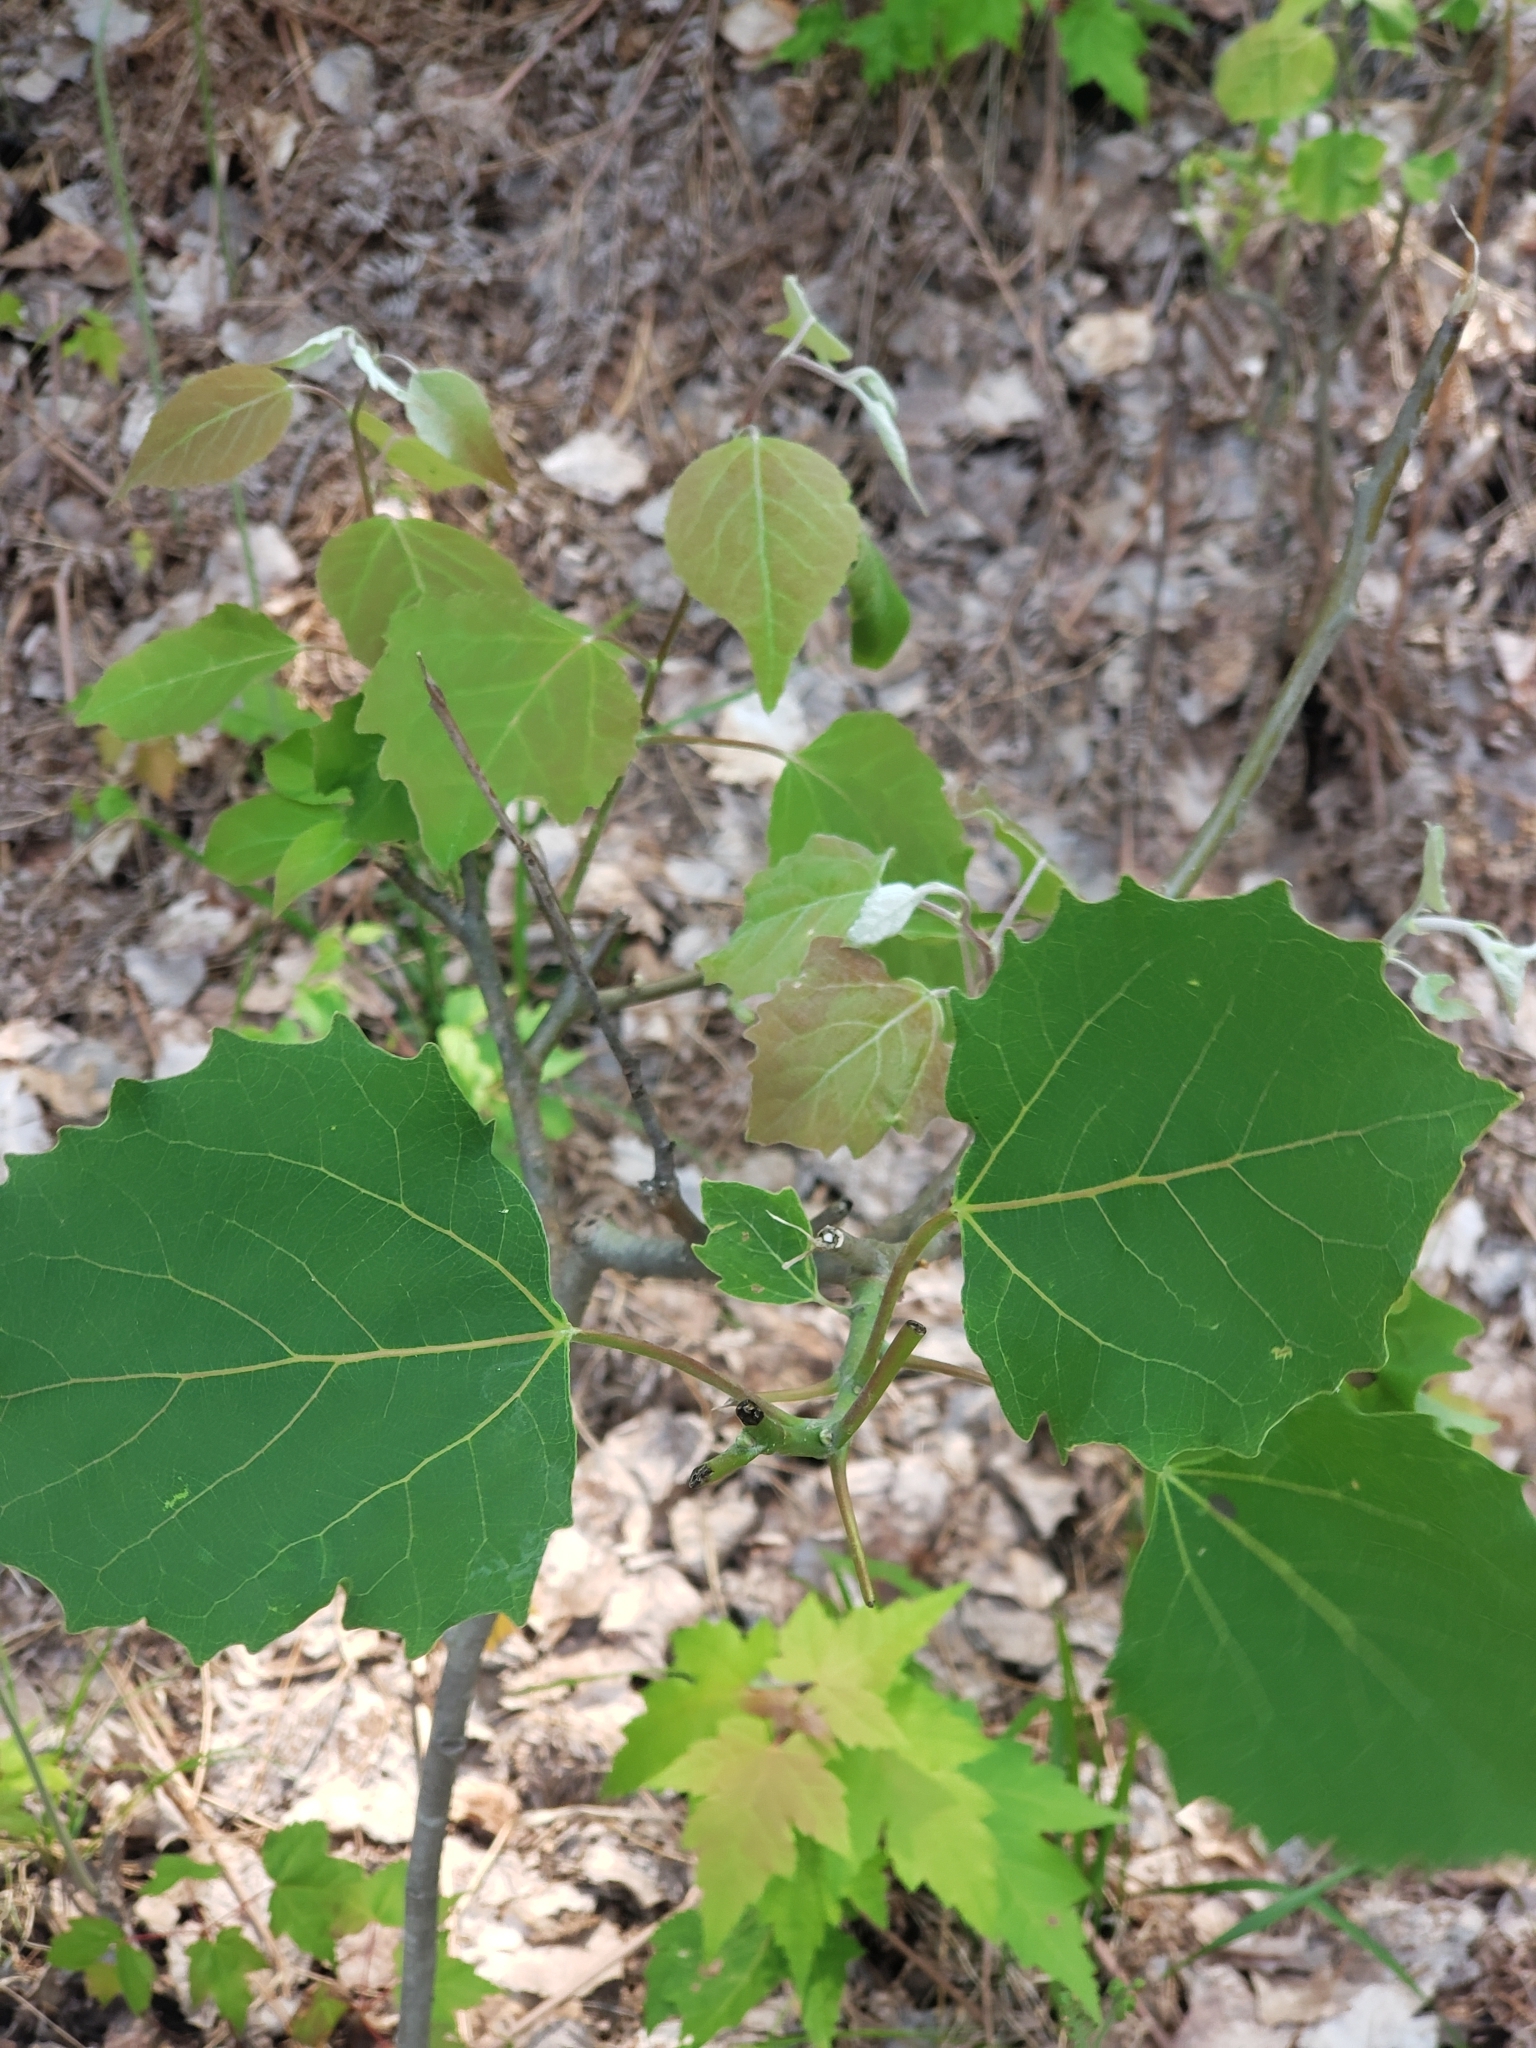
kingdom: Plantae
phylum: Tracheophyta
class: Magnoliopsida
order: Malpighiales
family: Salicaceae
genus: Populus
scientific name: Populus grandidentata
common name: Bigtooth aspen
